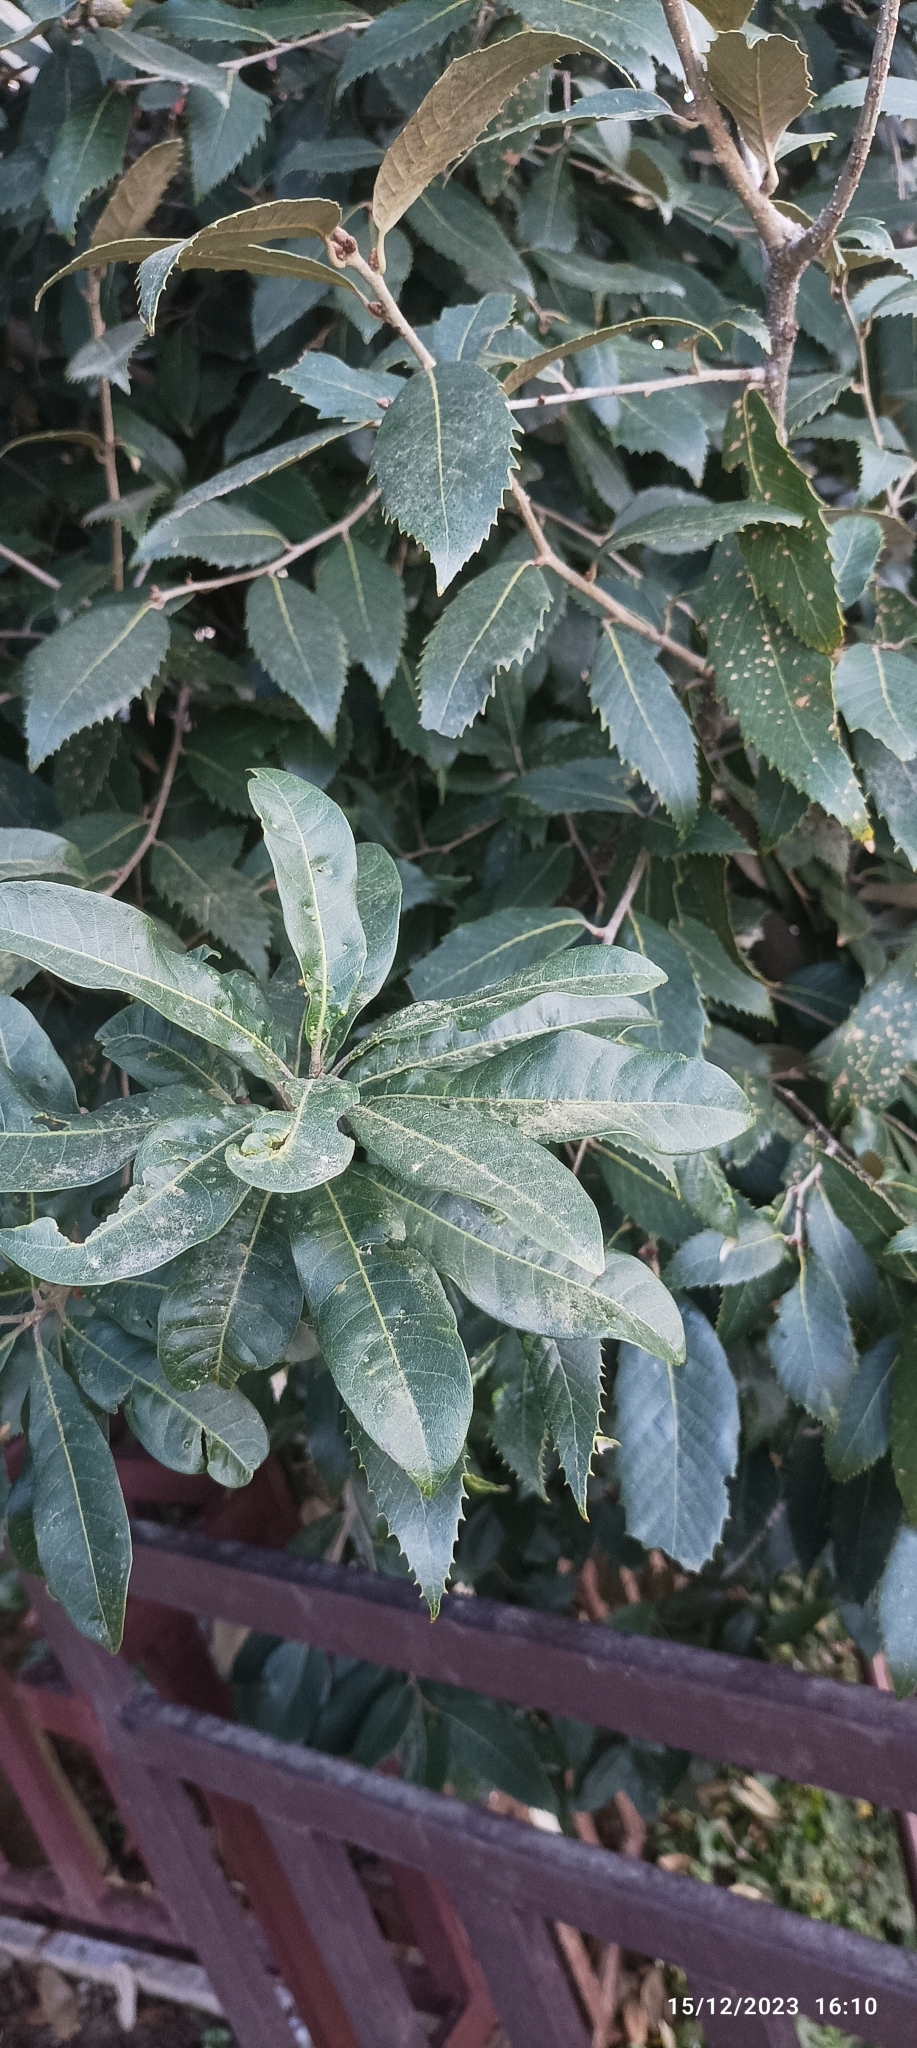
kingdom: Plantae
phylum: Tracheophyta
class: Magnoliopsida
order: Fagales
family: Myricaceae
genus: Morella
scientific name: Morella esculenta
